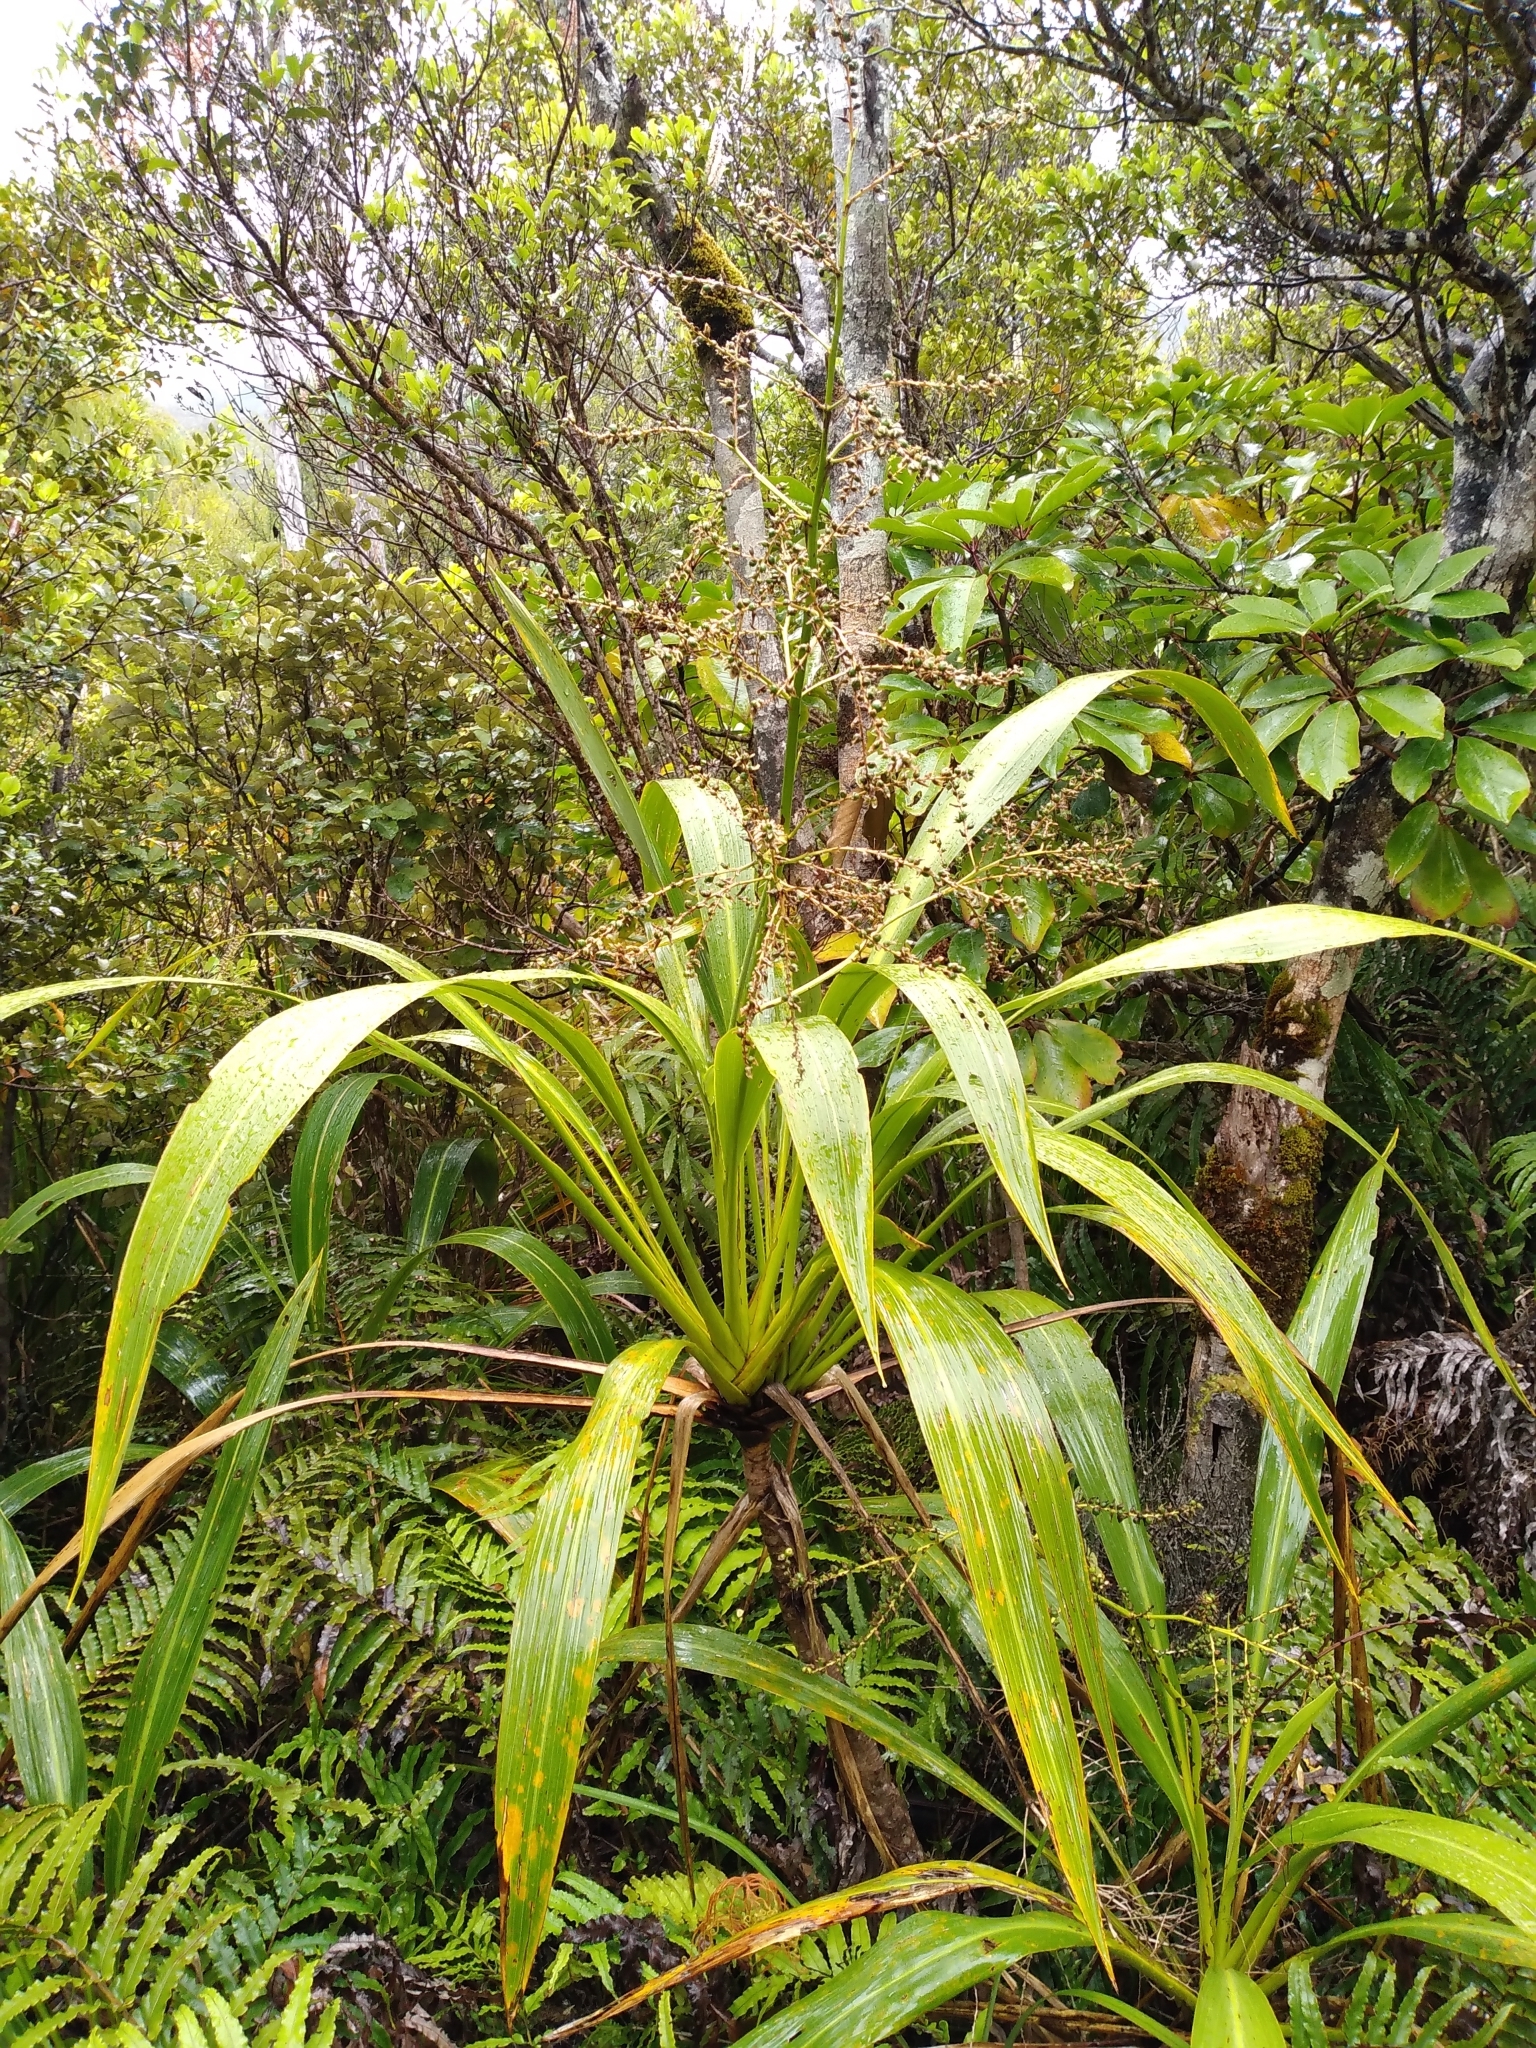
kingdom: Plantae
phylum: Tracheophyta
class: Liliopsida
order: Asparagales
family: Asparagaceae
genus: Cordyline
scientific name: Cordyline banksii
